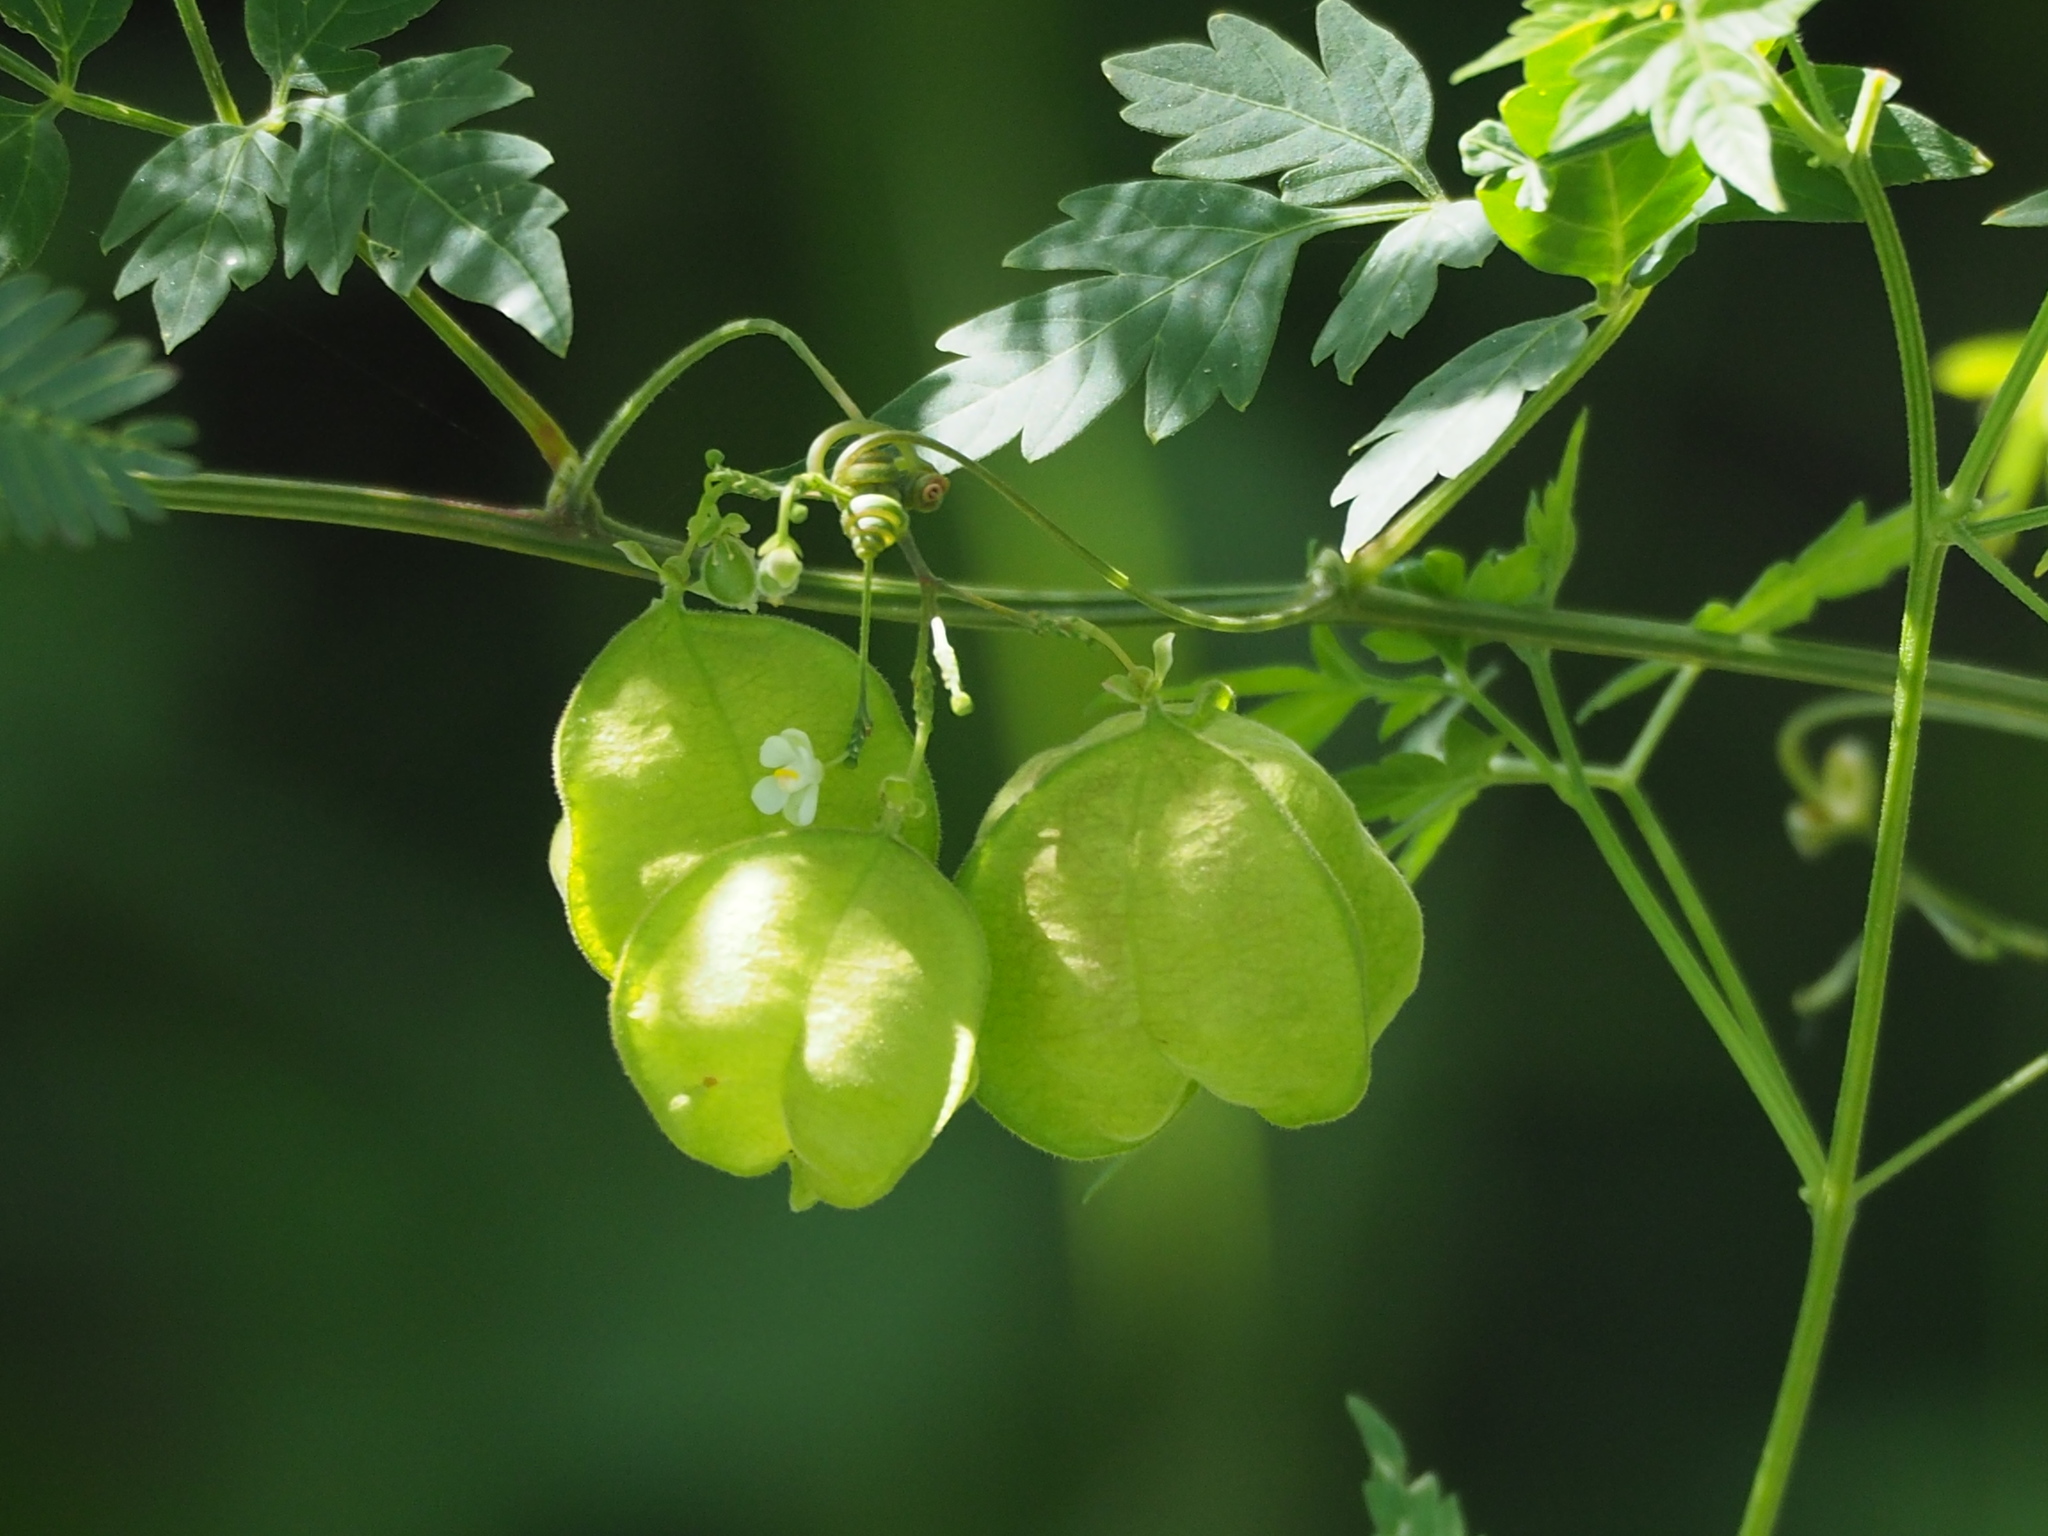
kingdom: Plantae
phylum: Tracheophyta
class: Magnoliopsida
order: Sapindales
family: Sapindaceae
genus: Cardiospermum
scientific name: Cardiospermum halicacabum
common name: Balloon vine
